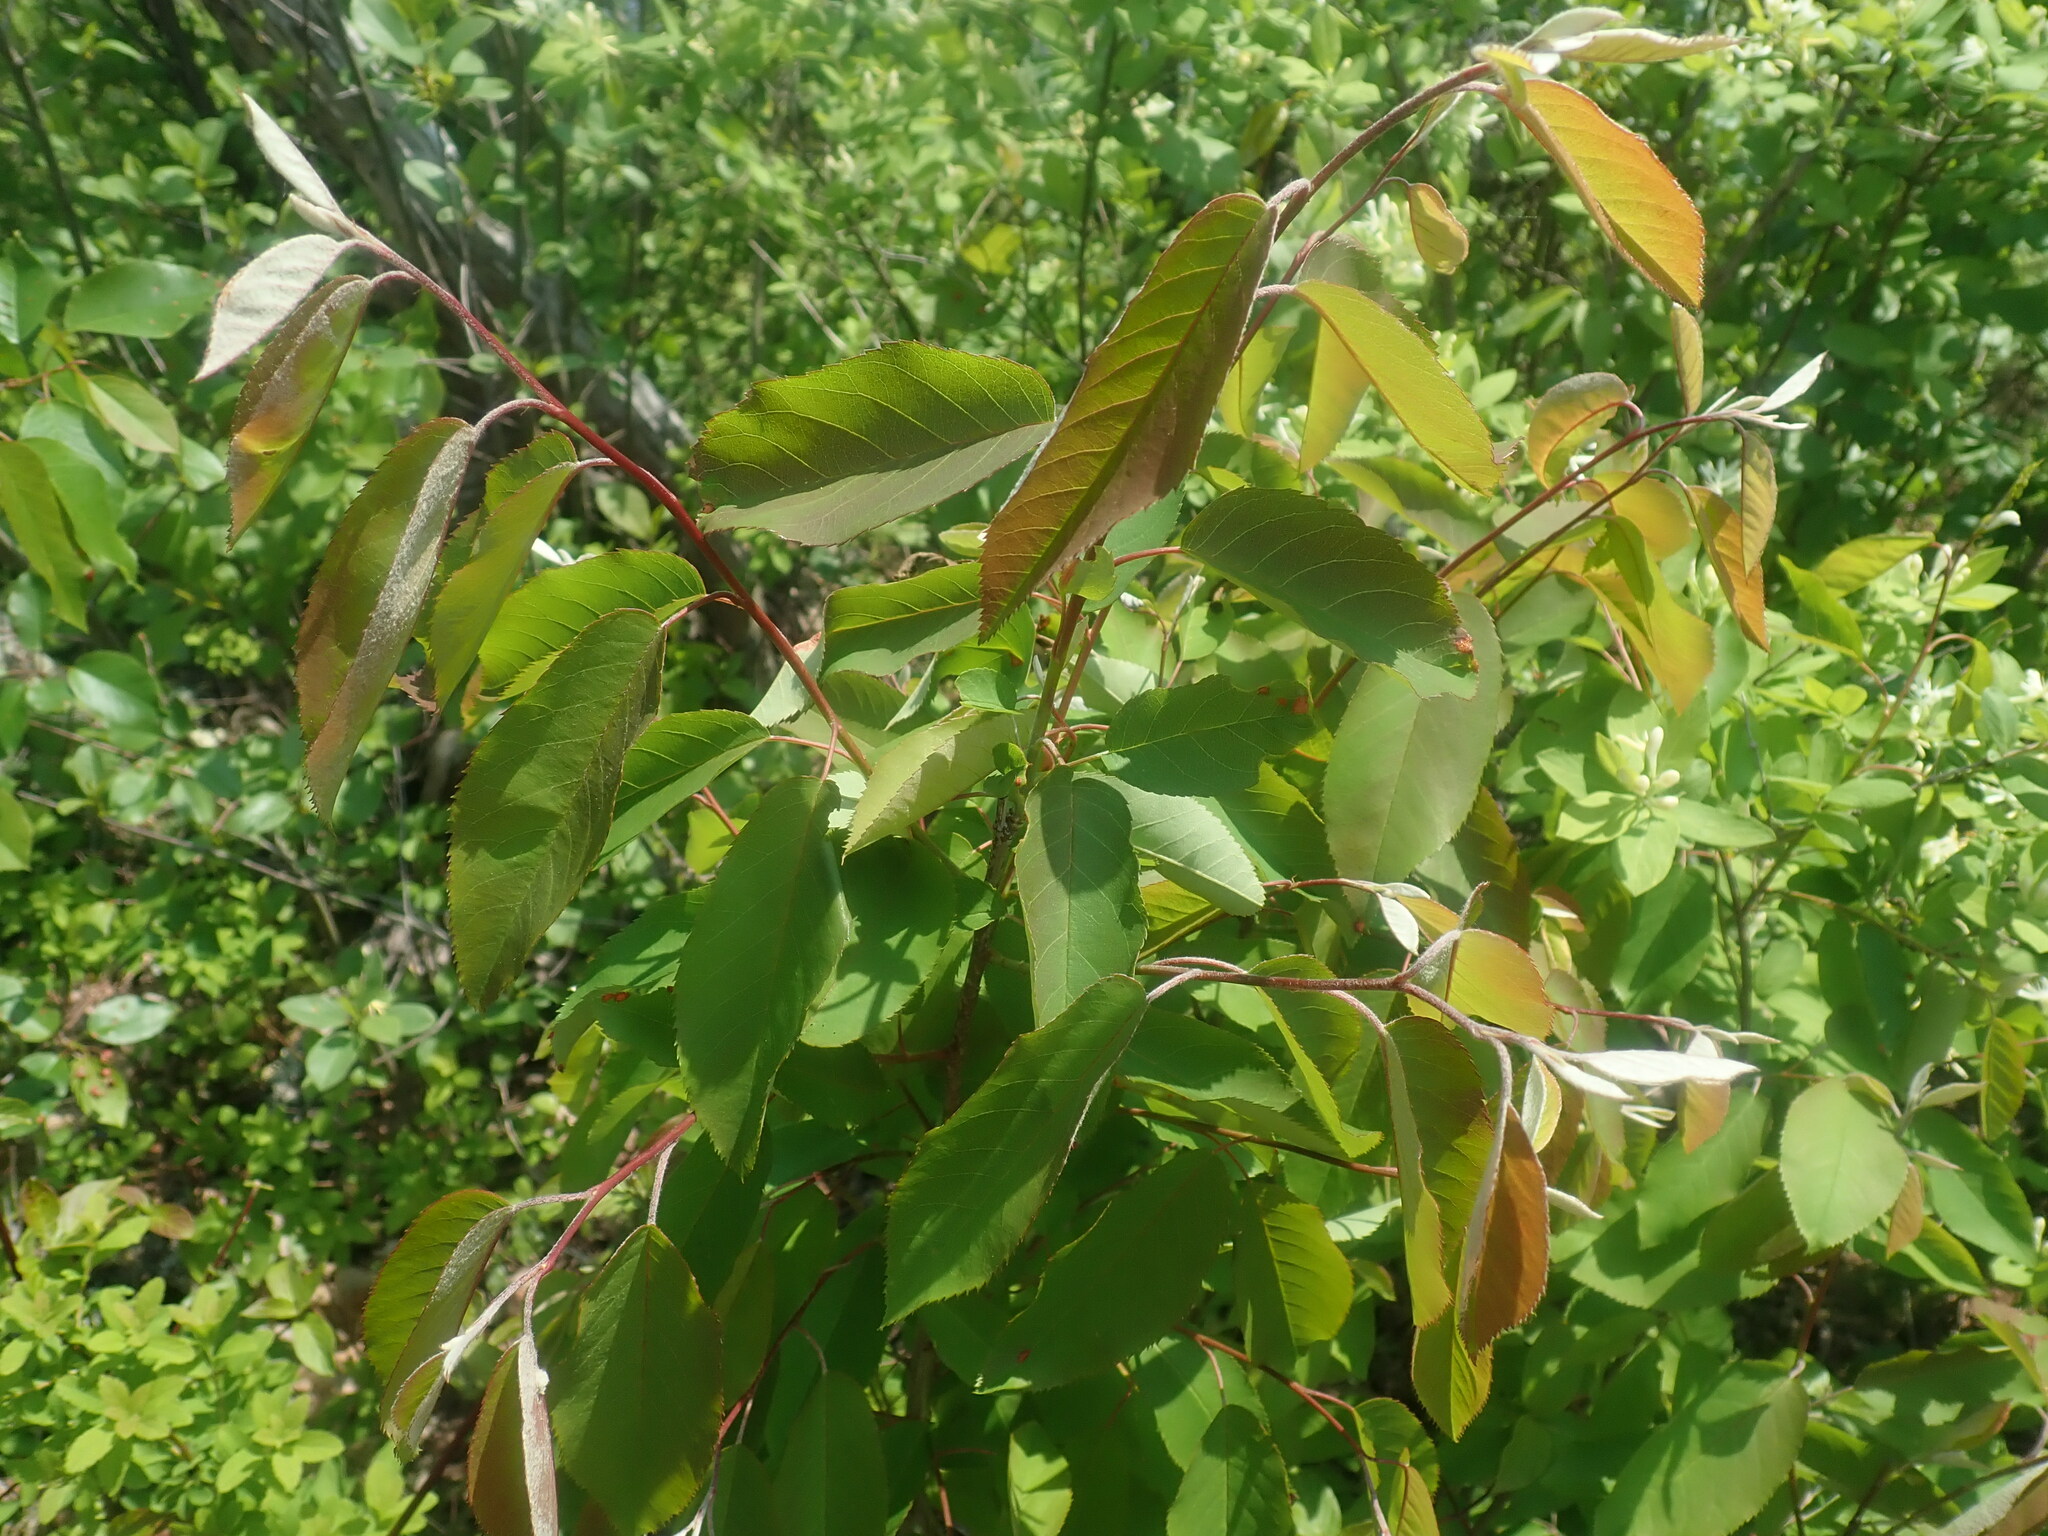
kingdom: Plantae
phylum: Tracheophyta
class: Magnoliopsida
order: Rosales
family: Rosaceae
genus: Amelanchier
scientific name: Amelanchier
